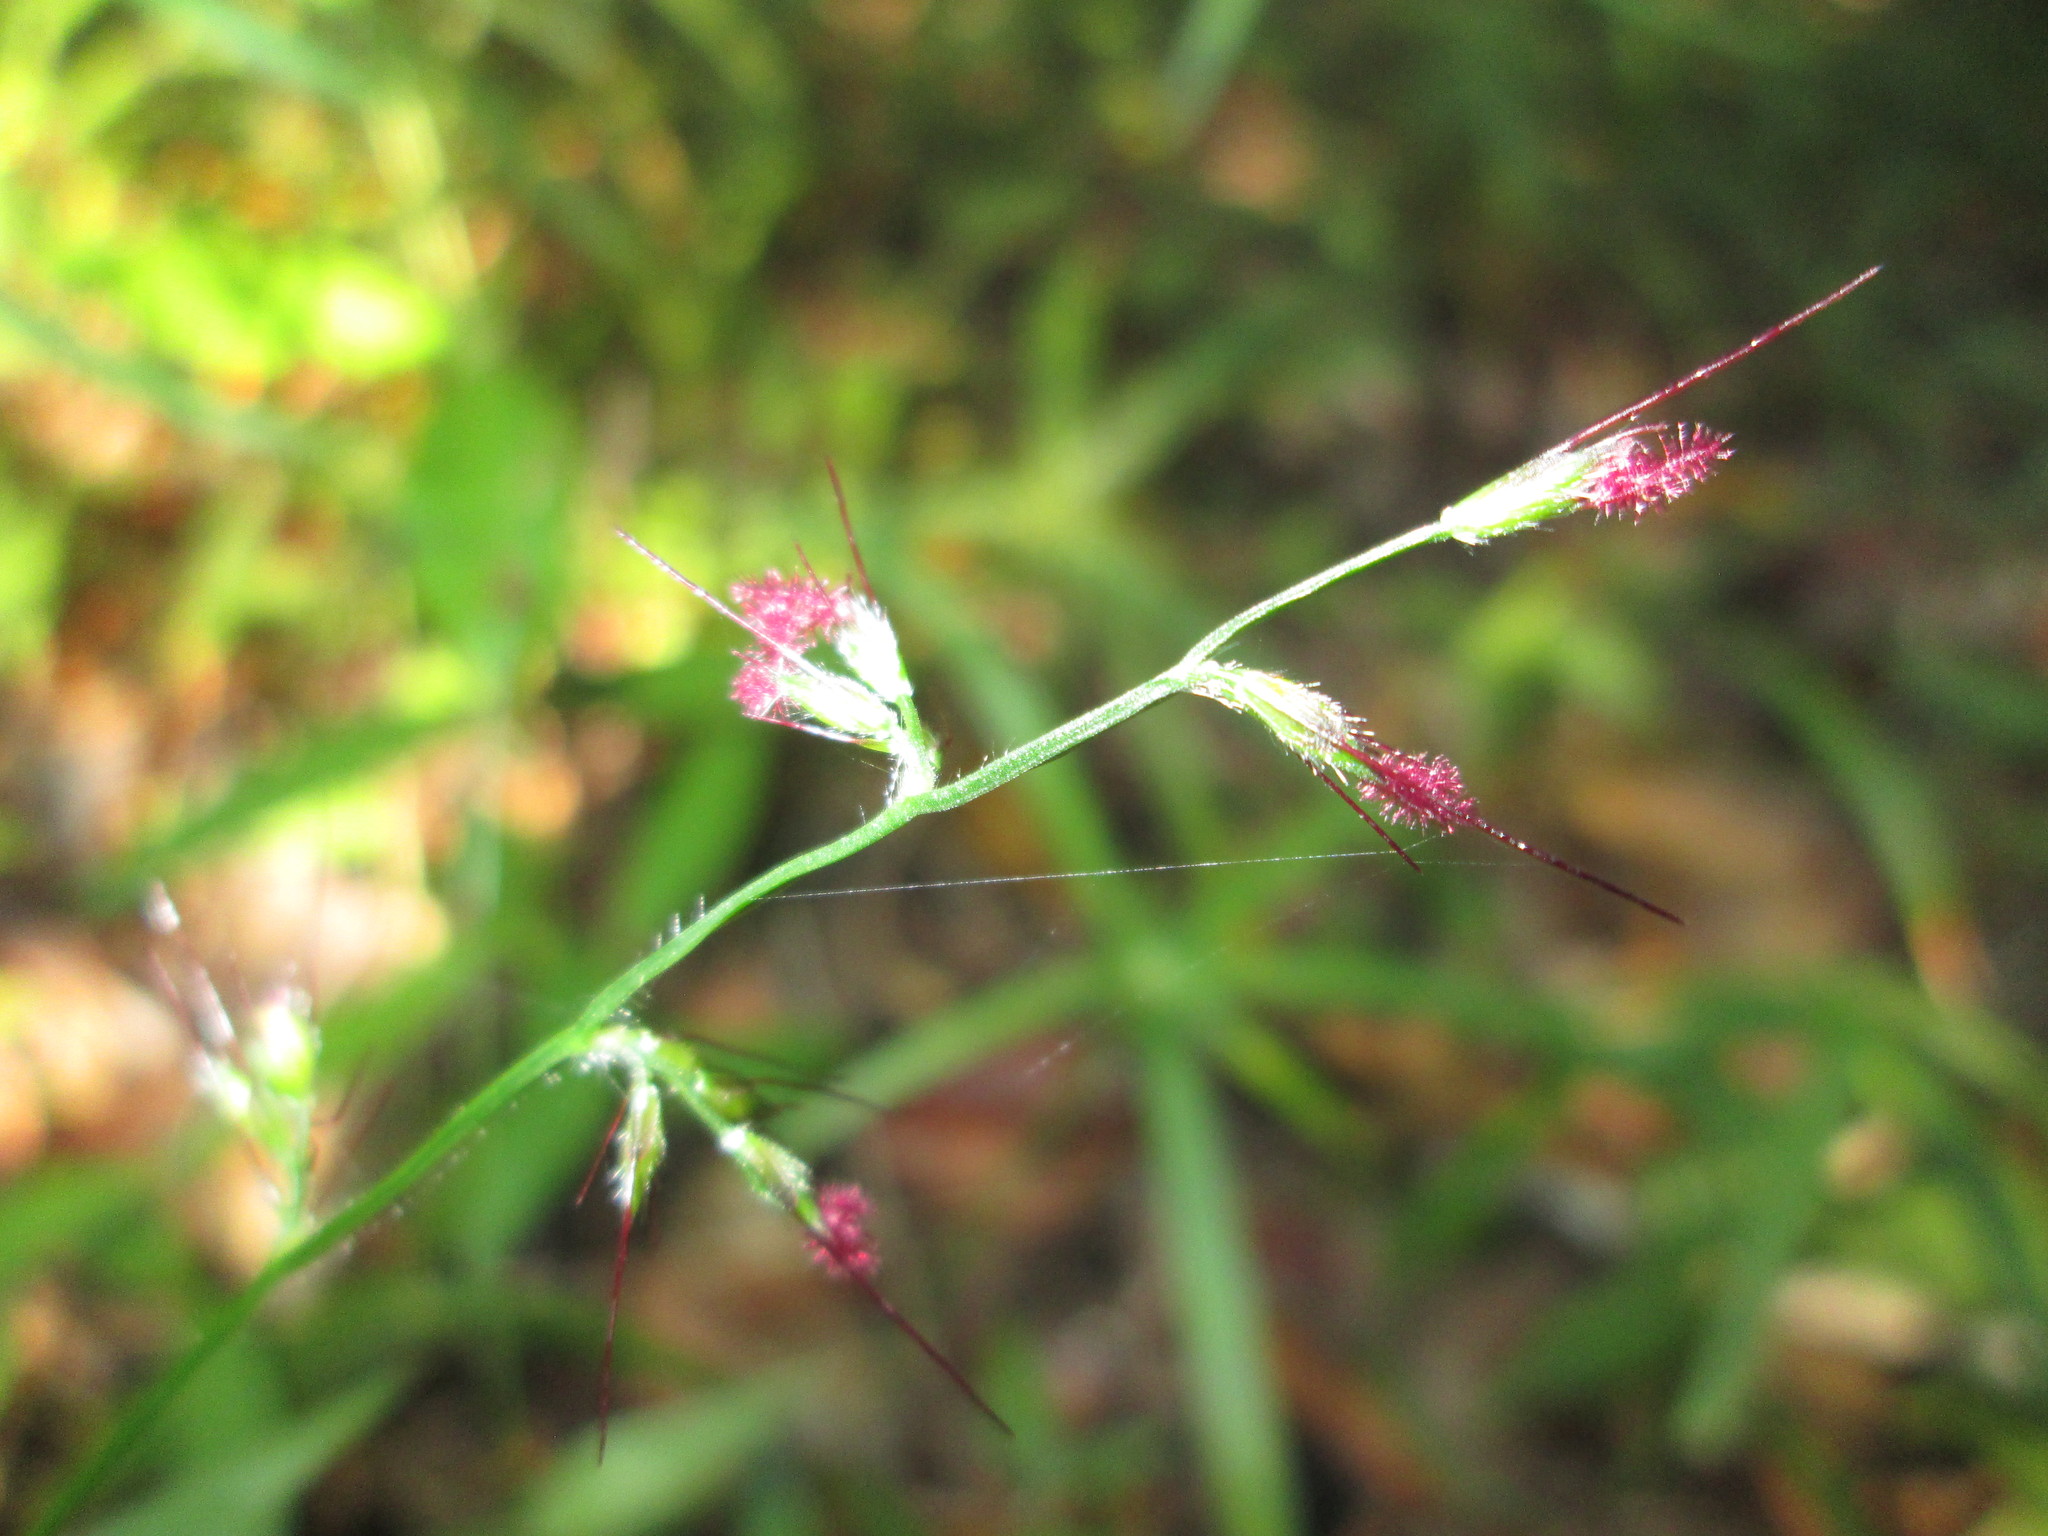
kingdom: Plantae
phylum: Tracheophyta
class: Liliopsida
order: Poales
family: Poaceae
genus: Oplismenus
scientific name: Oplismenus hirtellus
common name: Basketgrass
